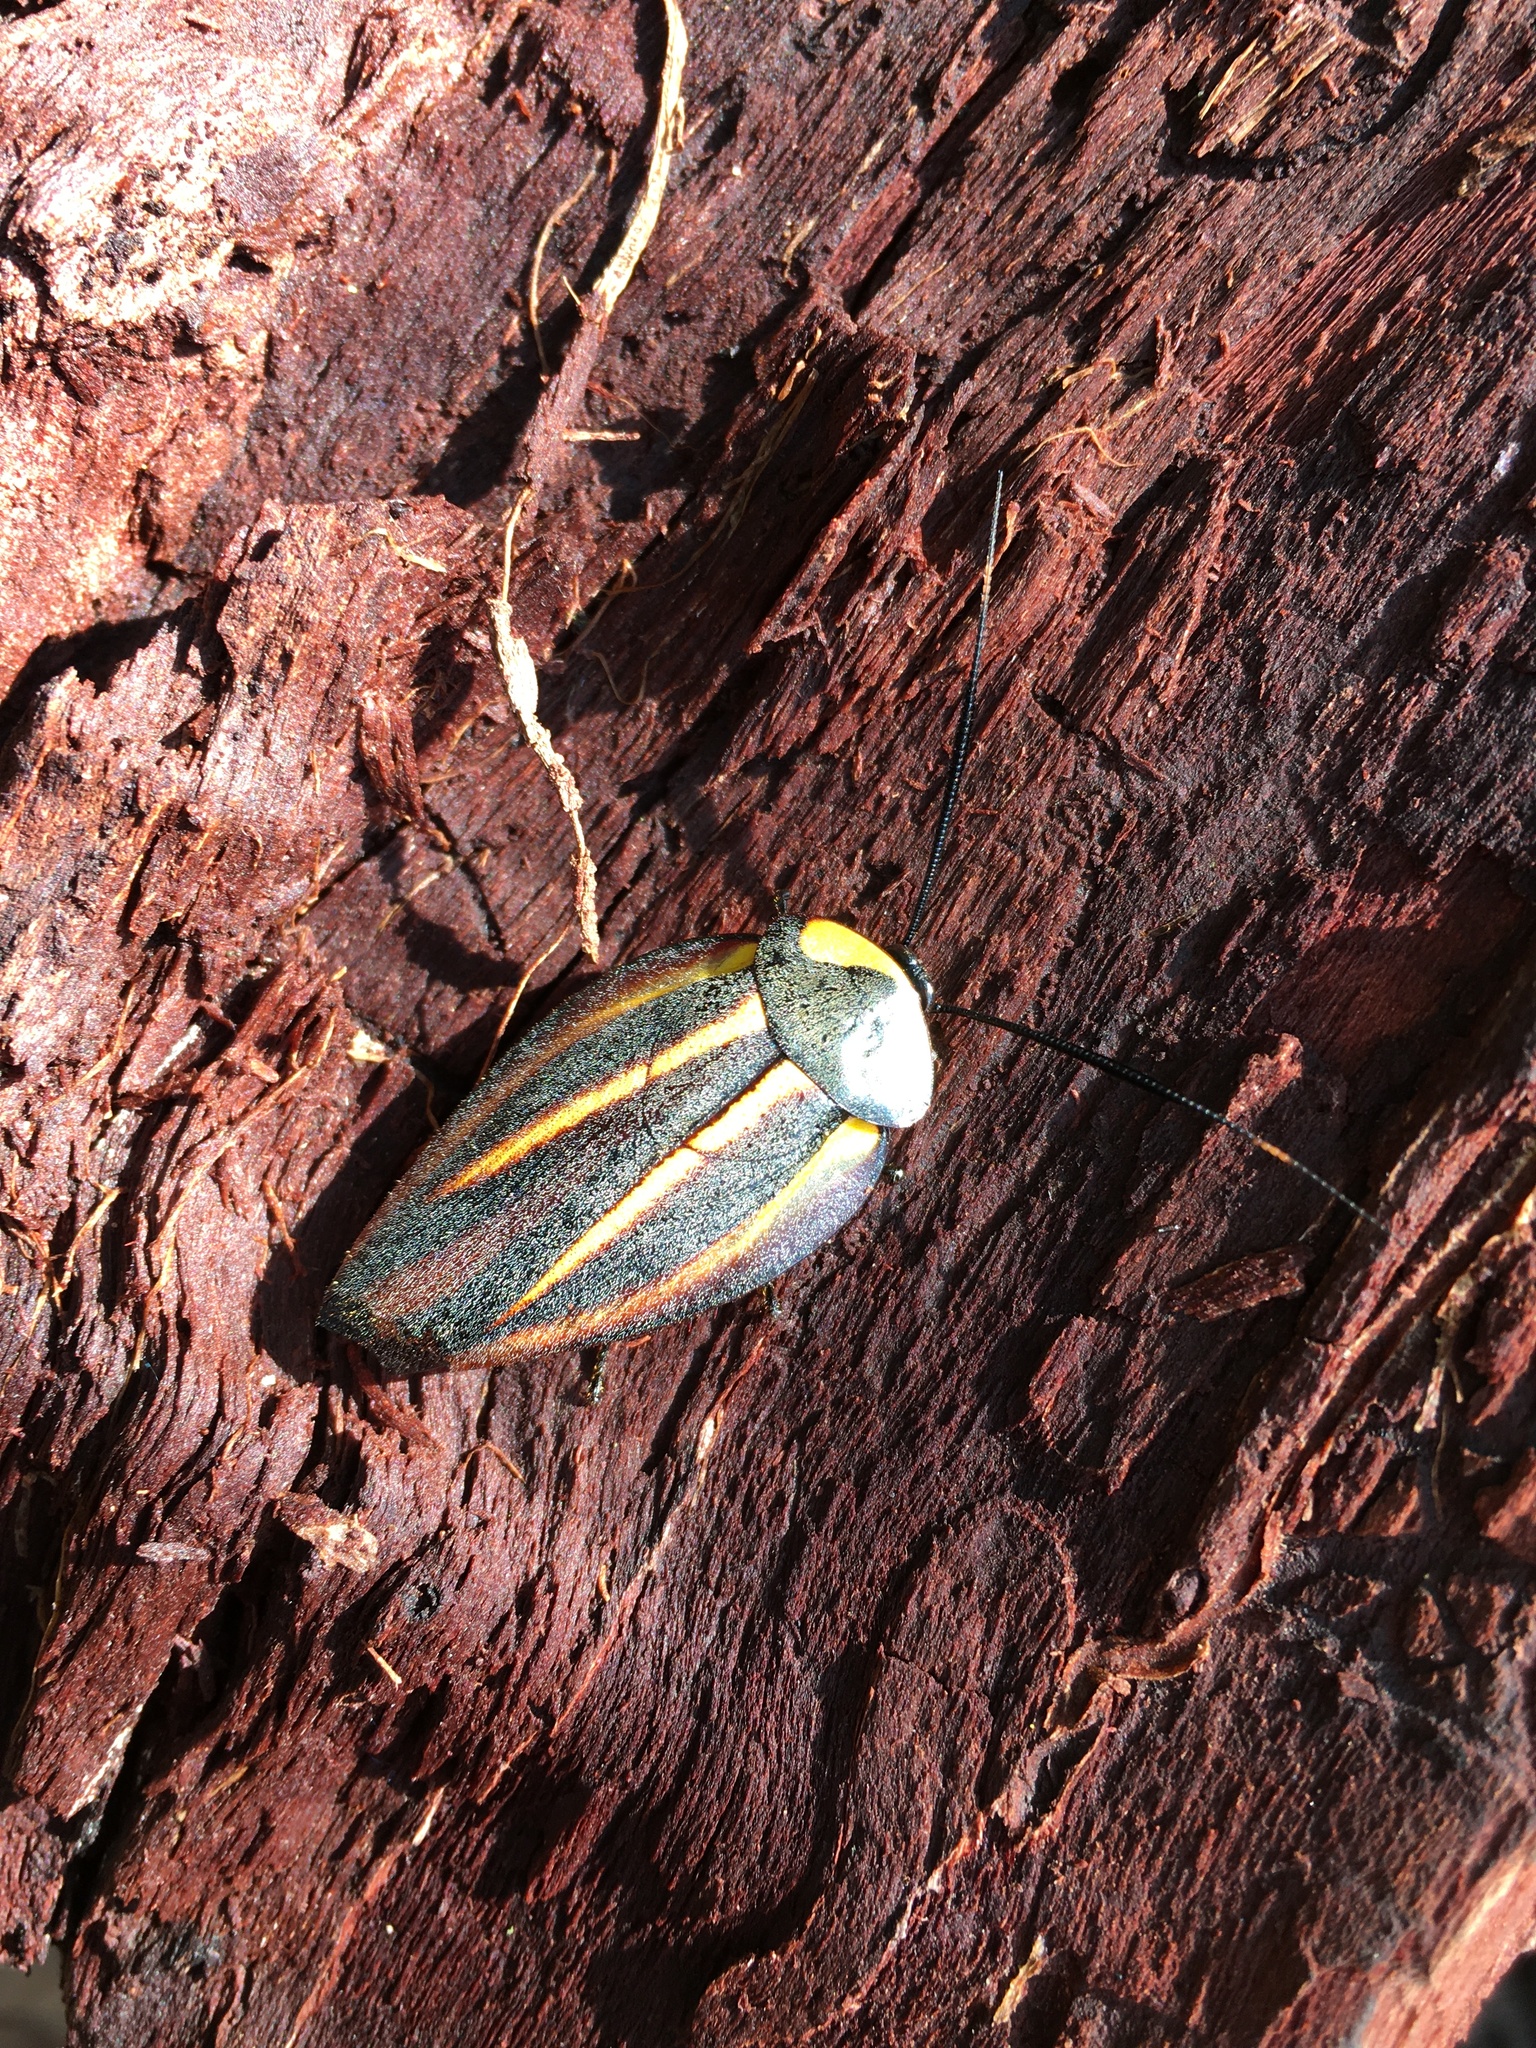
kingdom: Animalia
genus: Rochaina
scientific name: Rochaina
